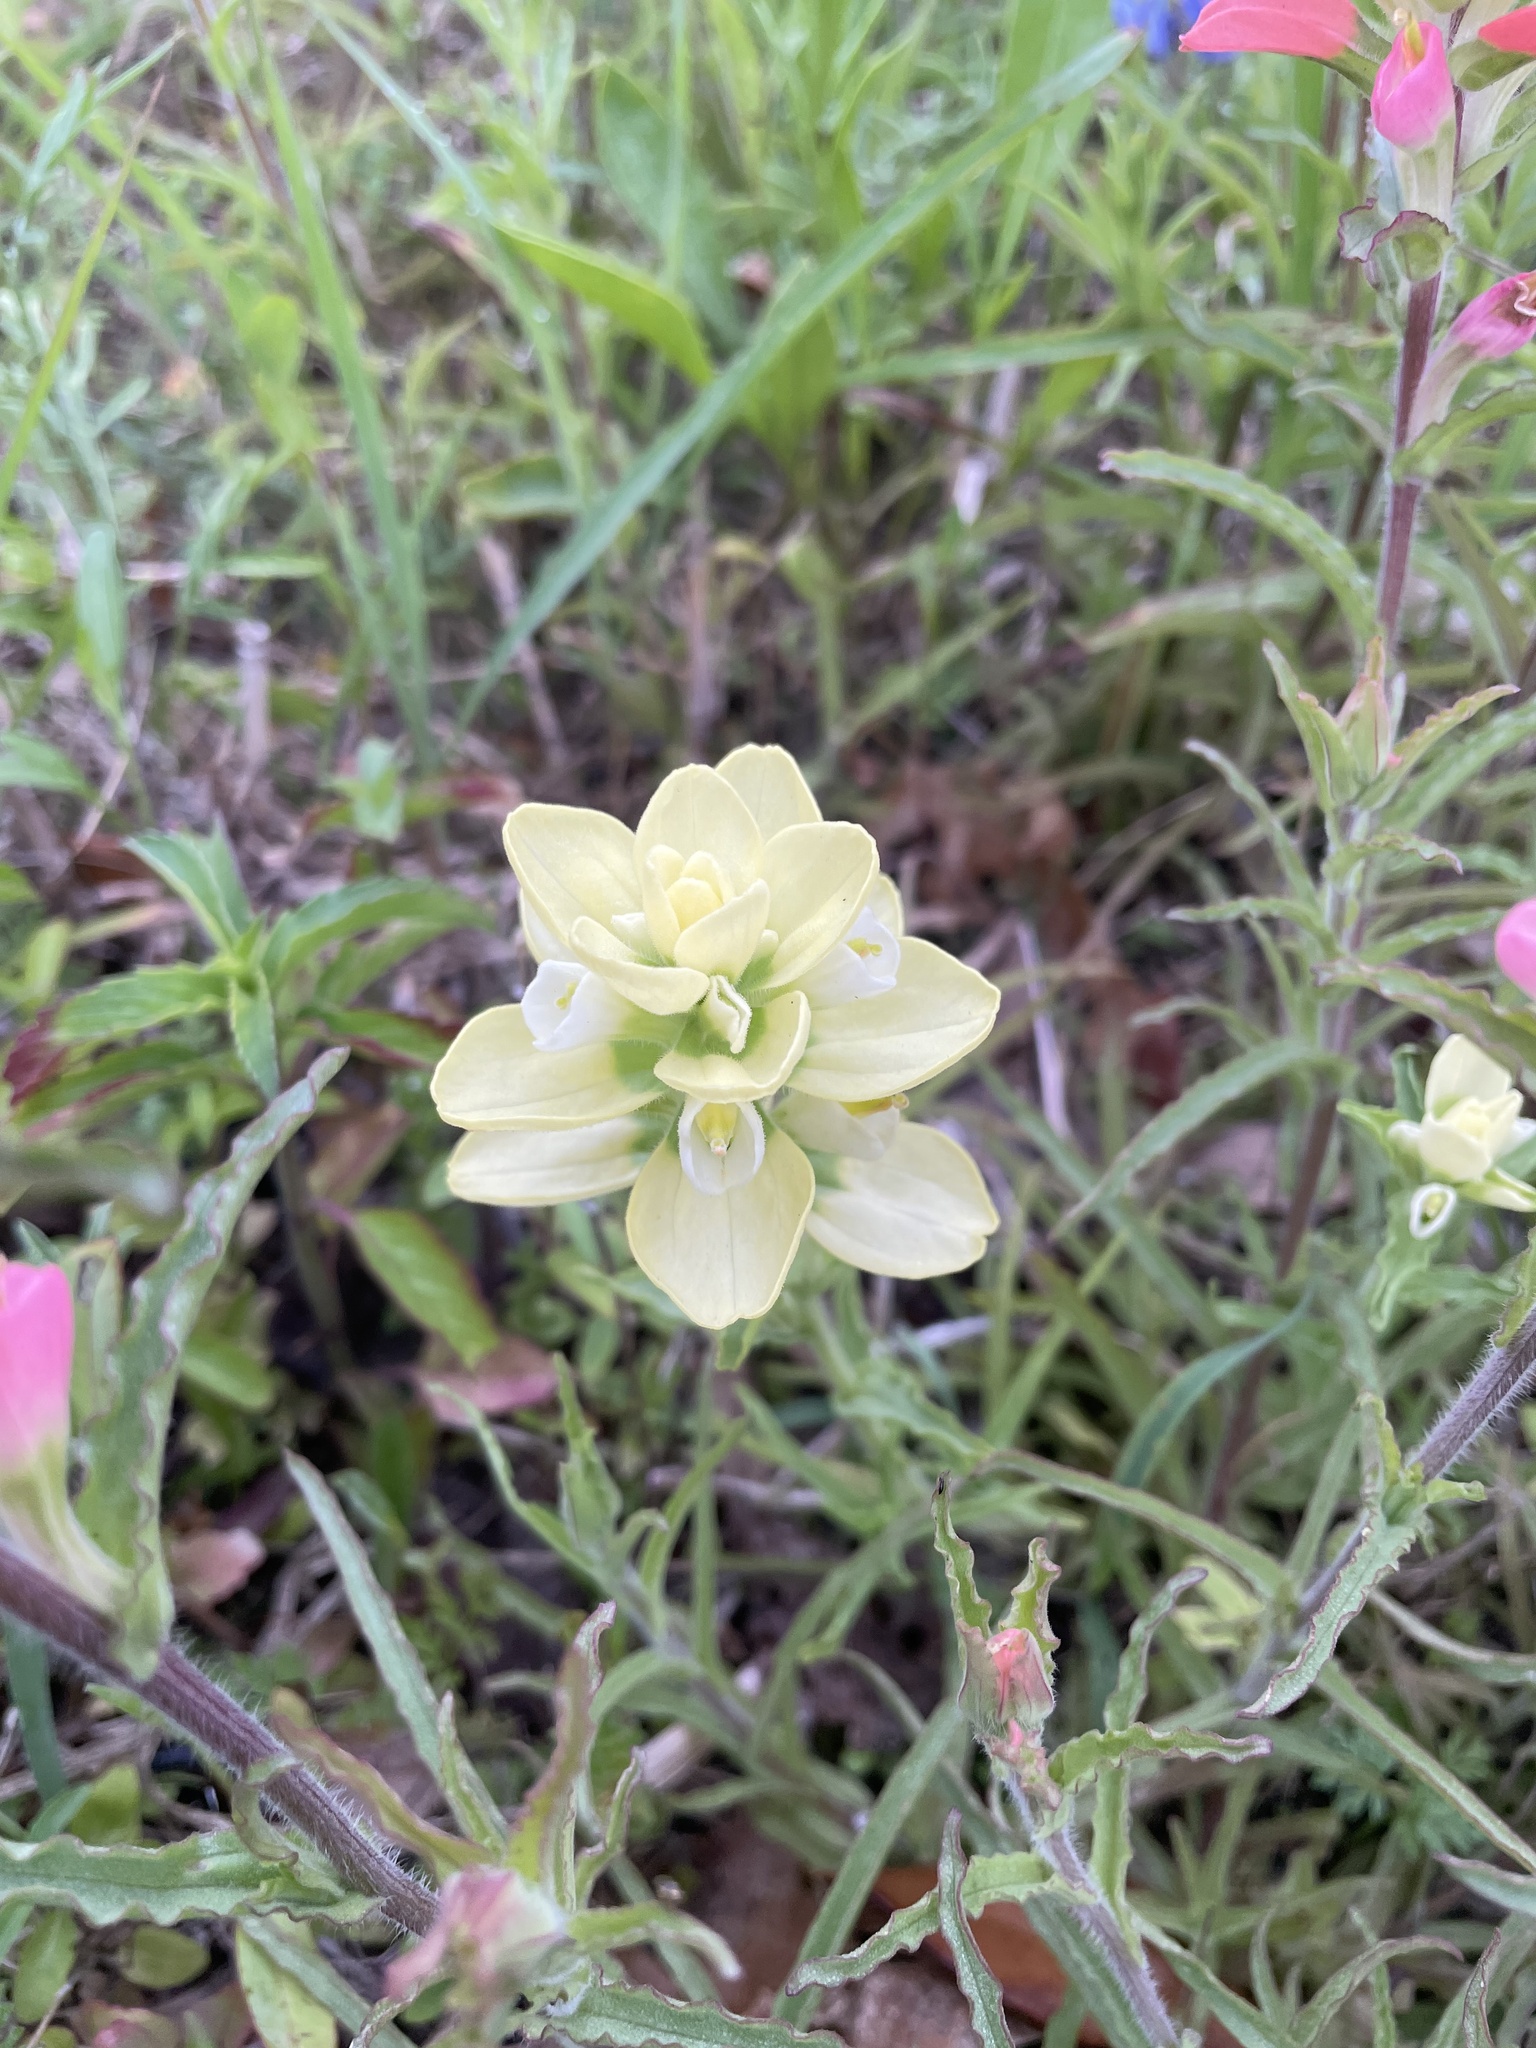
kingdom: Plantae
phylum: Tracheophyta
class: Magnoliopsida
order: Lamiales
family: Orobanchaceae
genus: Castilleja
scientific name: Castilleja indivisa
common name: Texas paintbrush
